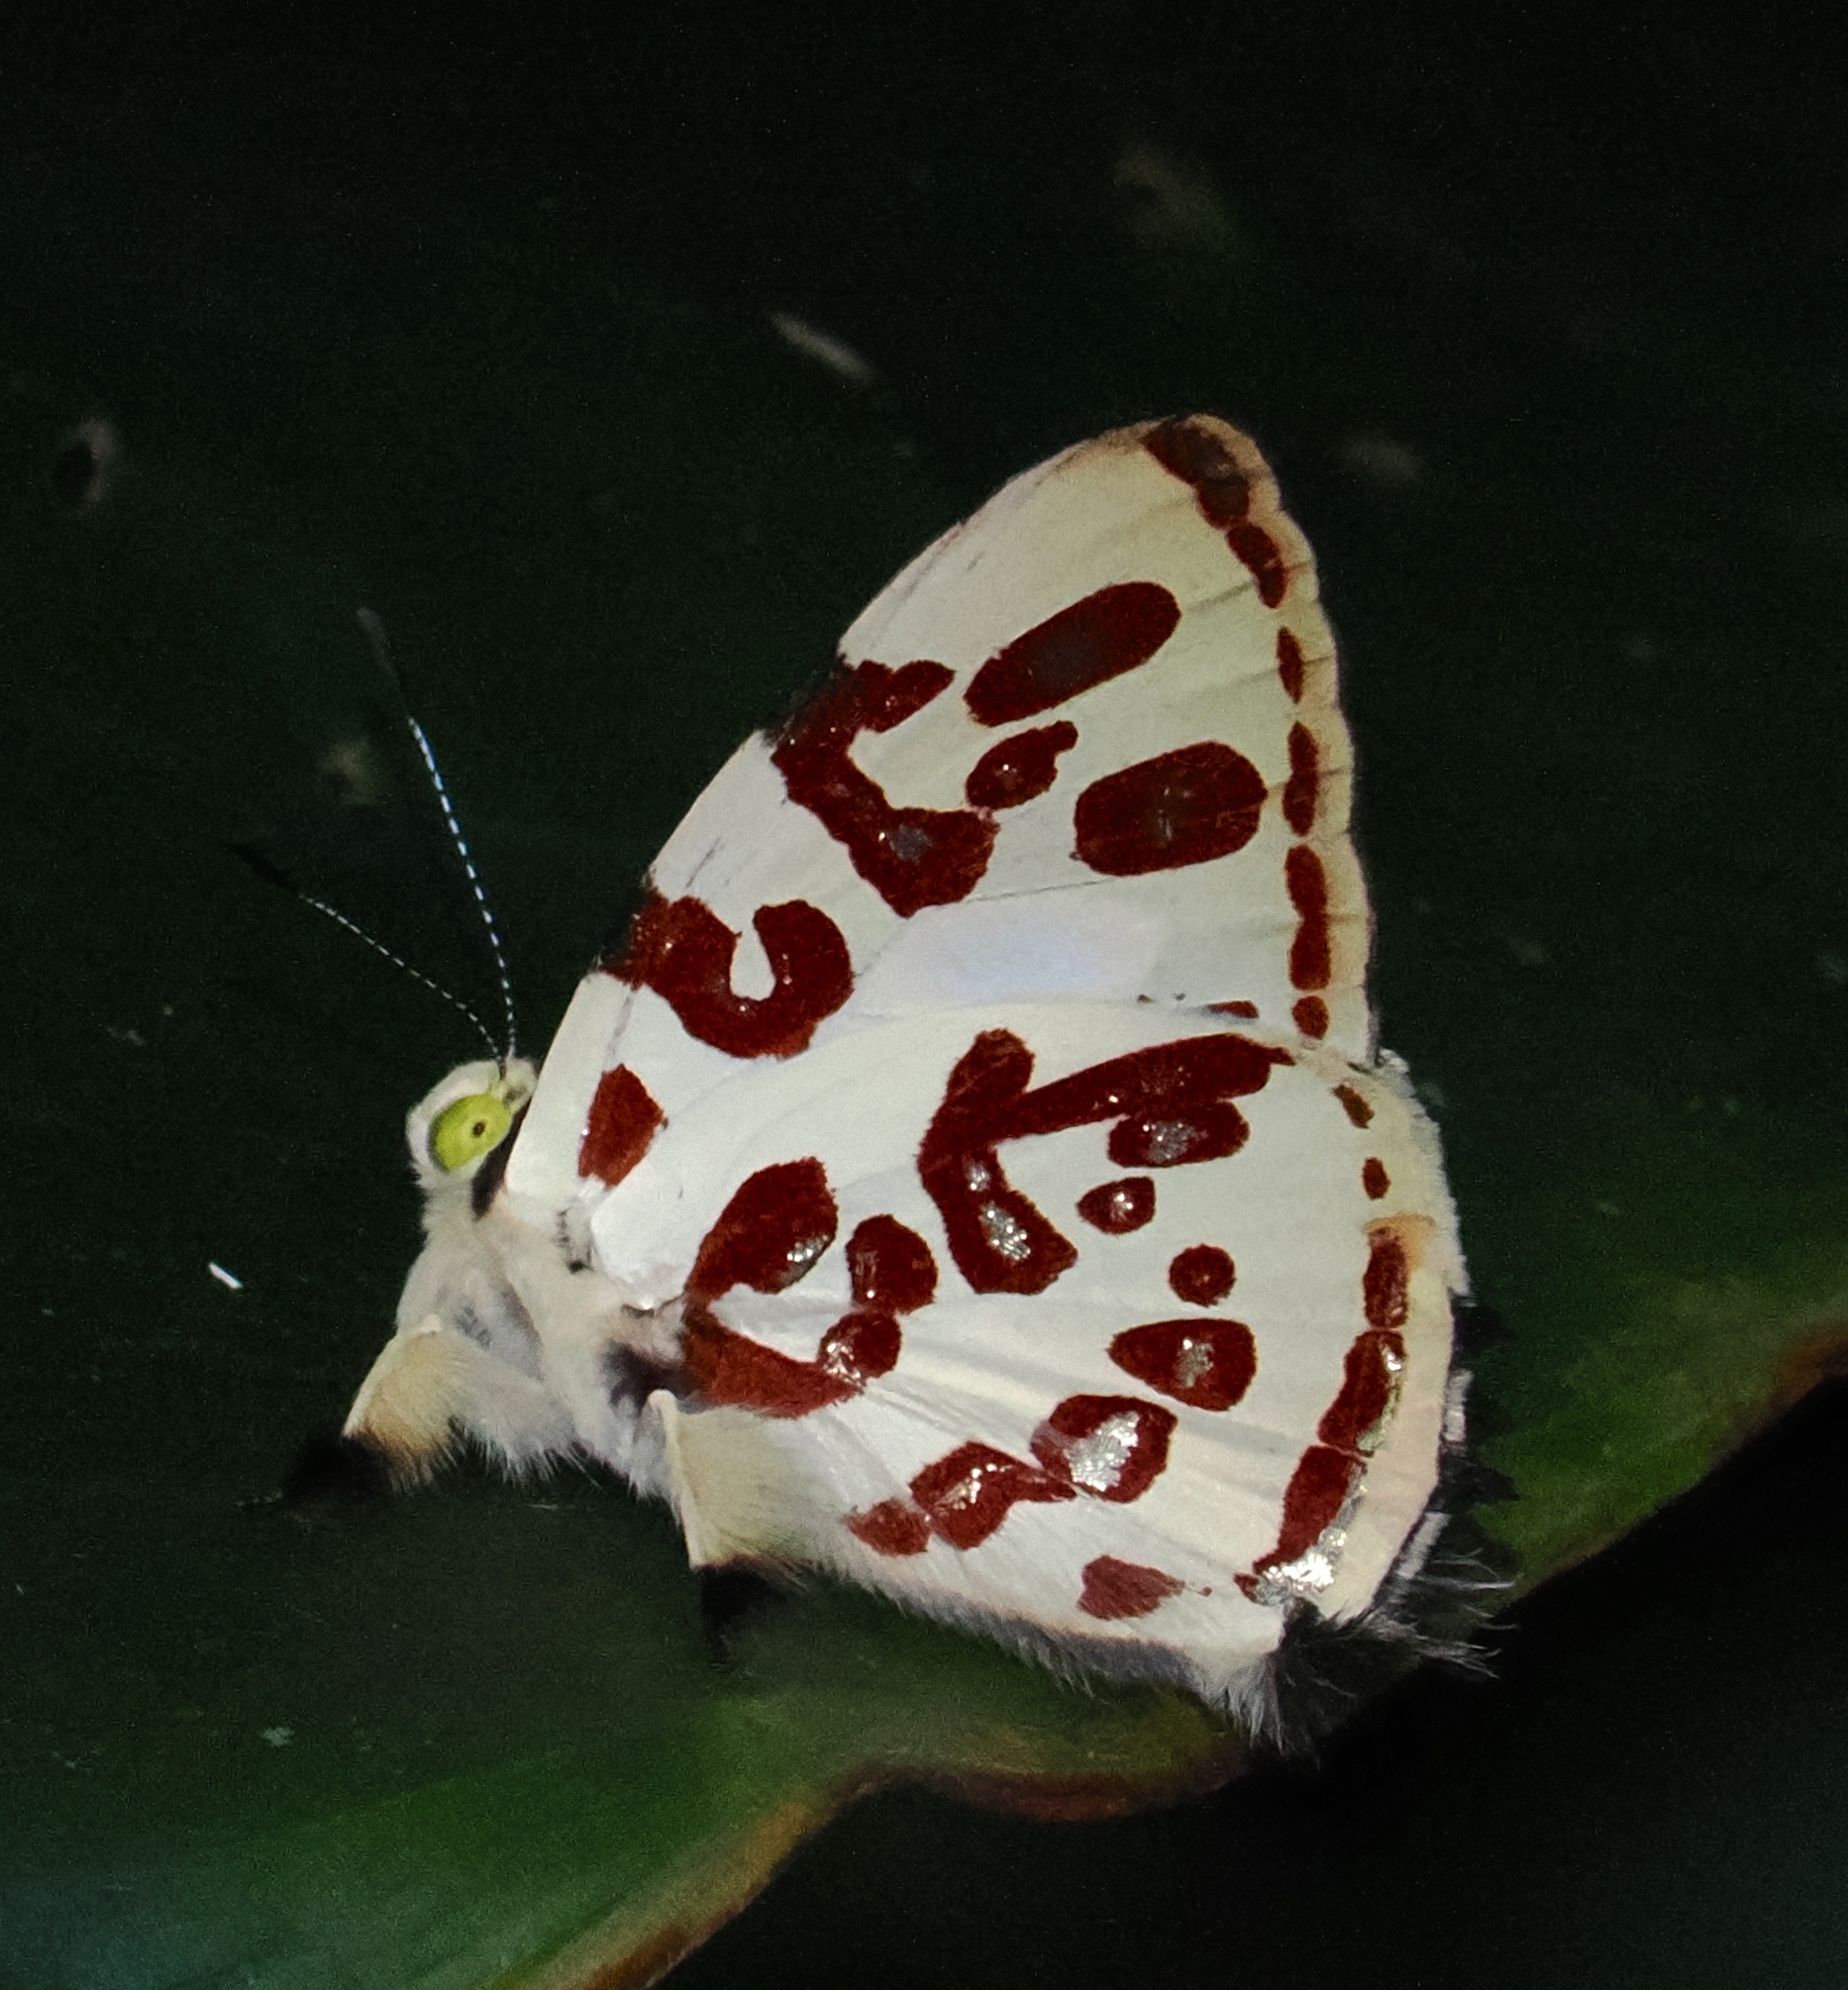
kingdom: Animalia
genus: Anteros
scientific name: Anteros kupris
